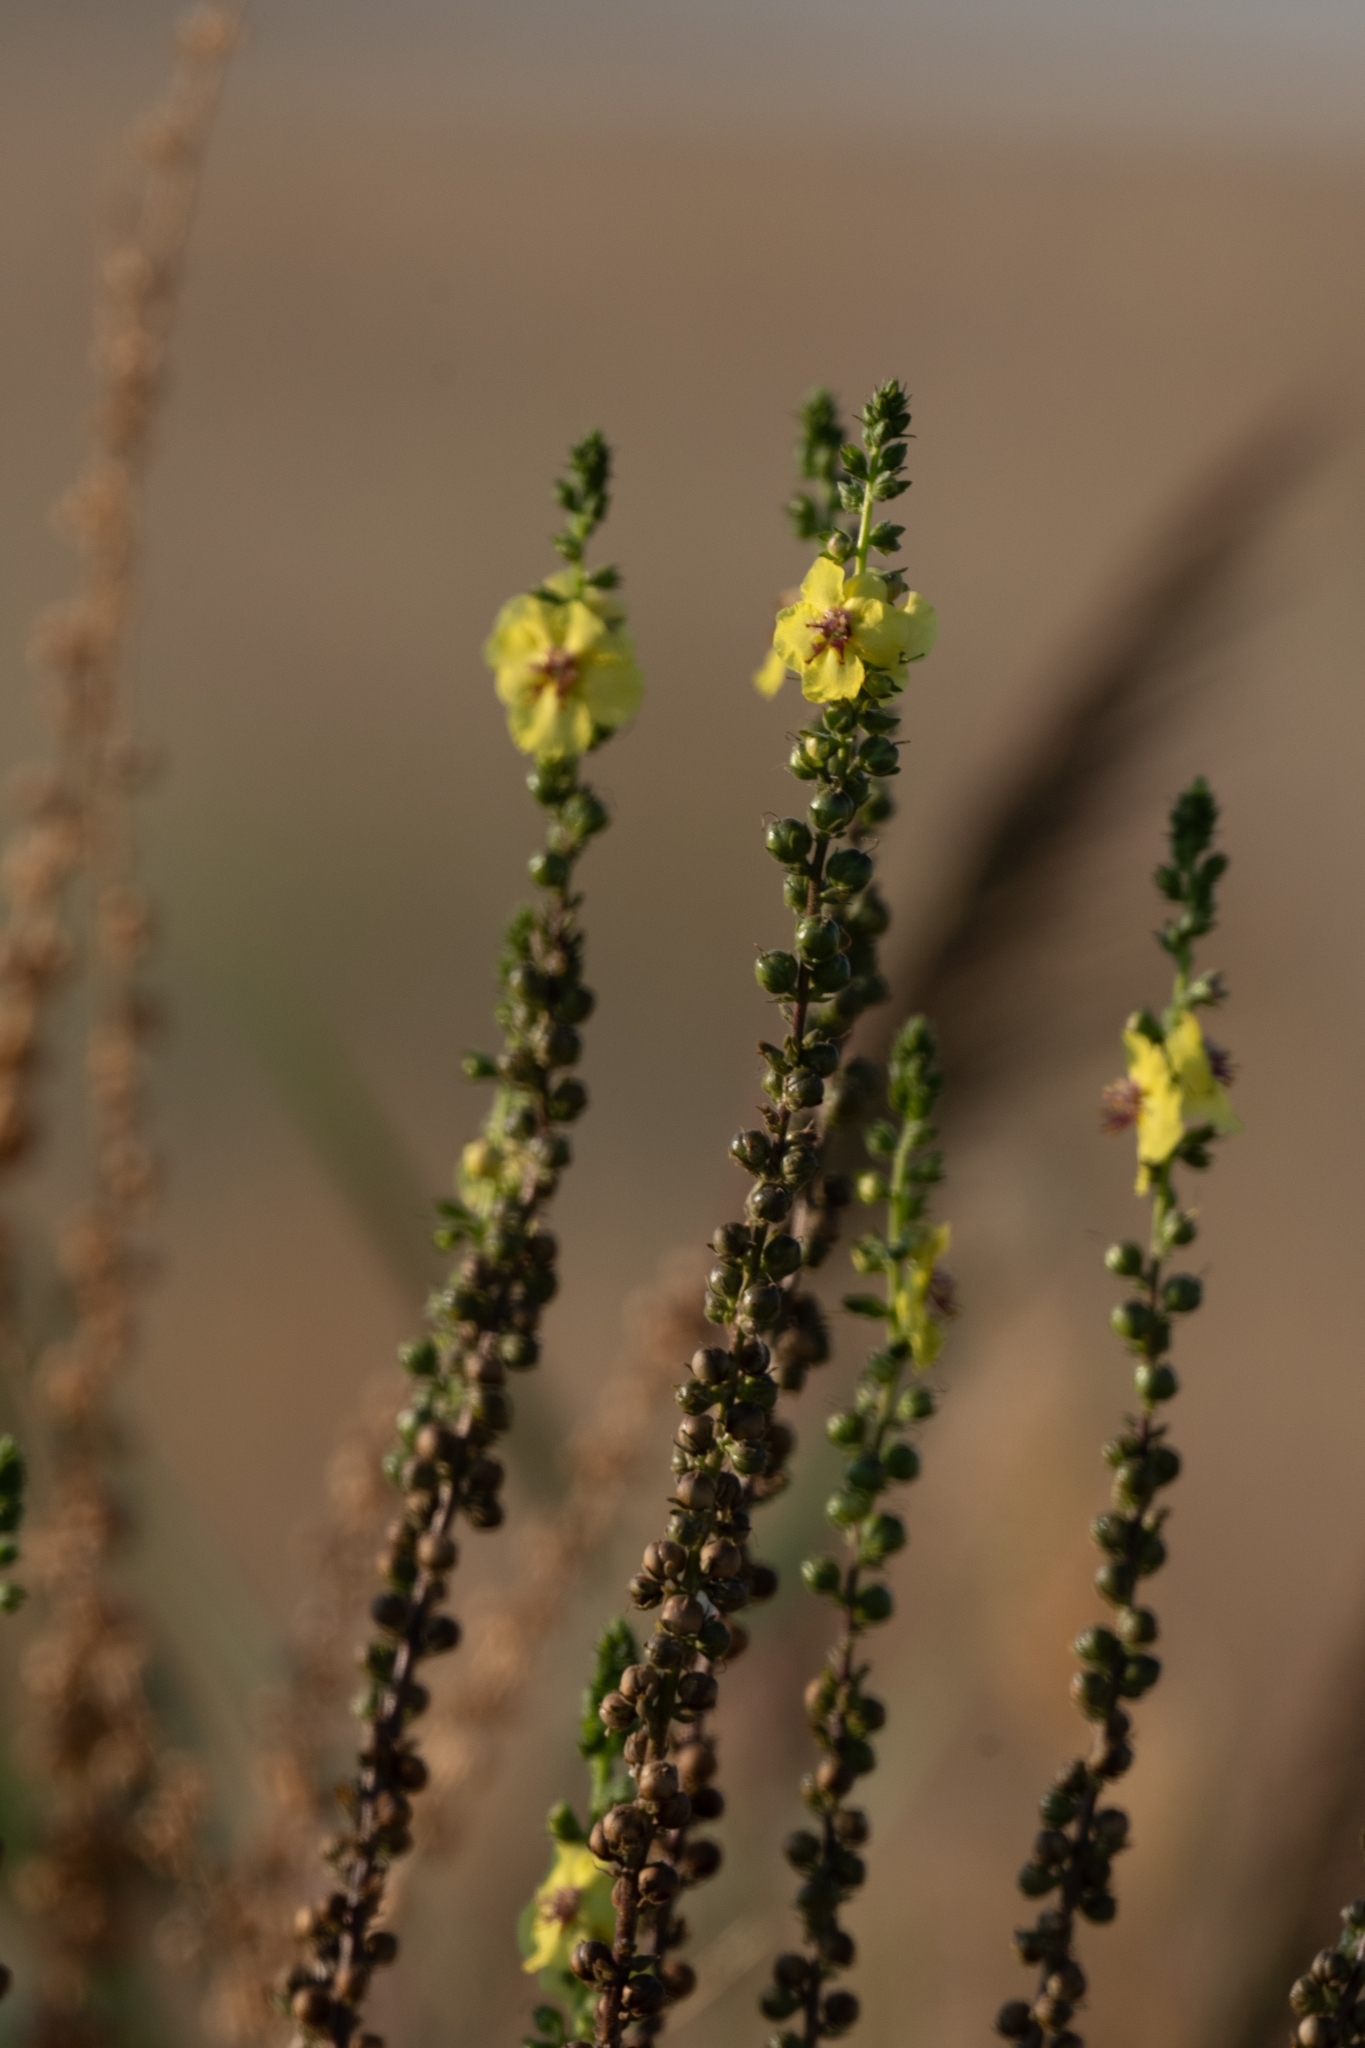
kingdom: Plantae
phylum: Tracheophyta
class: Magnoliopsida
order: Lamiales
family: Scrophulariaceae
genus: Verbascum
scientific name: Verbascum virgatum
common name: Twiggy mullein
